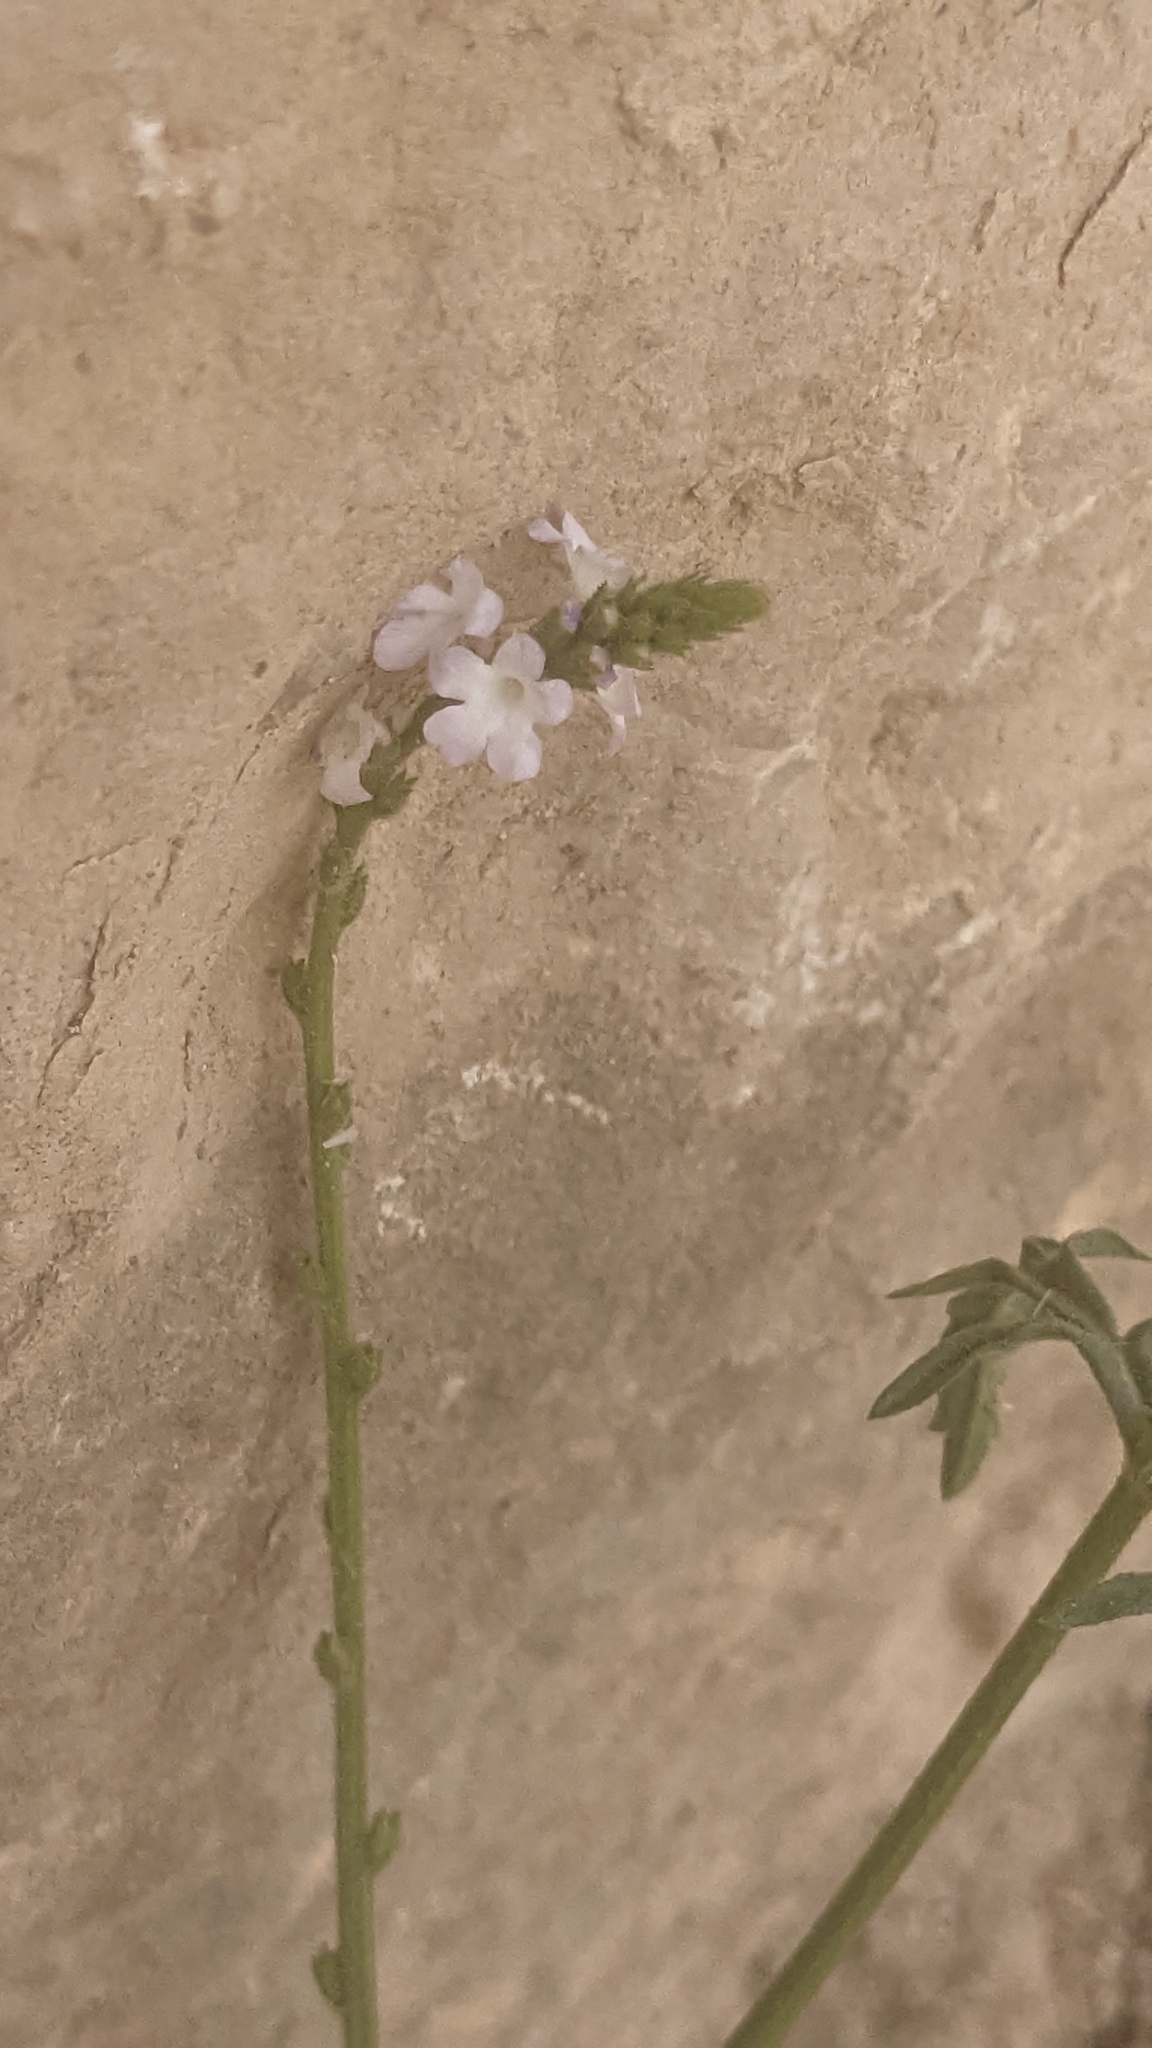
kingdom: Plantae
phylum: Tracheophyta
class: Magnoliopsida
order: Lamiales
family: Verbenaceae
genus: Verbena
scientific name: Verbena officinalis
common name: Vervain
